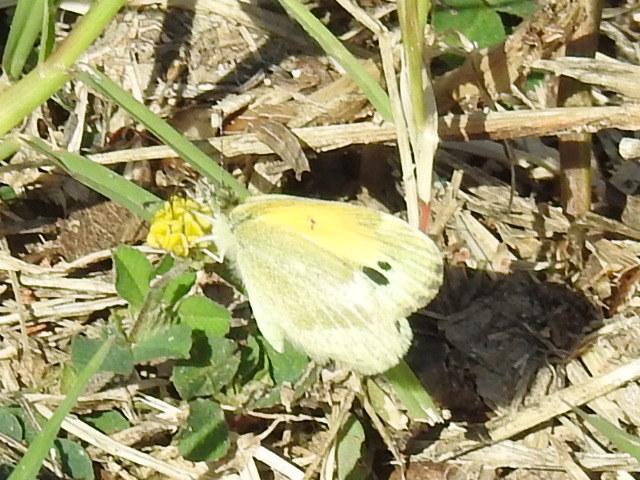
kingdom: Animalia
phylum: Arthropoda
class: Insecta
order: Lepidoptera
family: Pieridae
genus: Nathalis
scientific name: Nathalis iole
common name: Dainty sulphur
